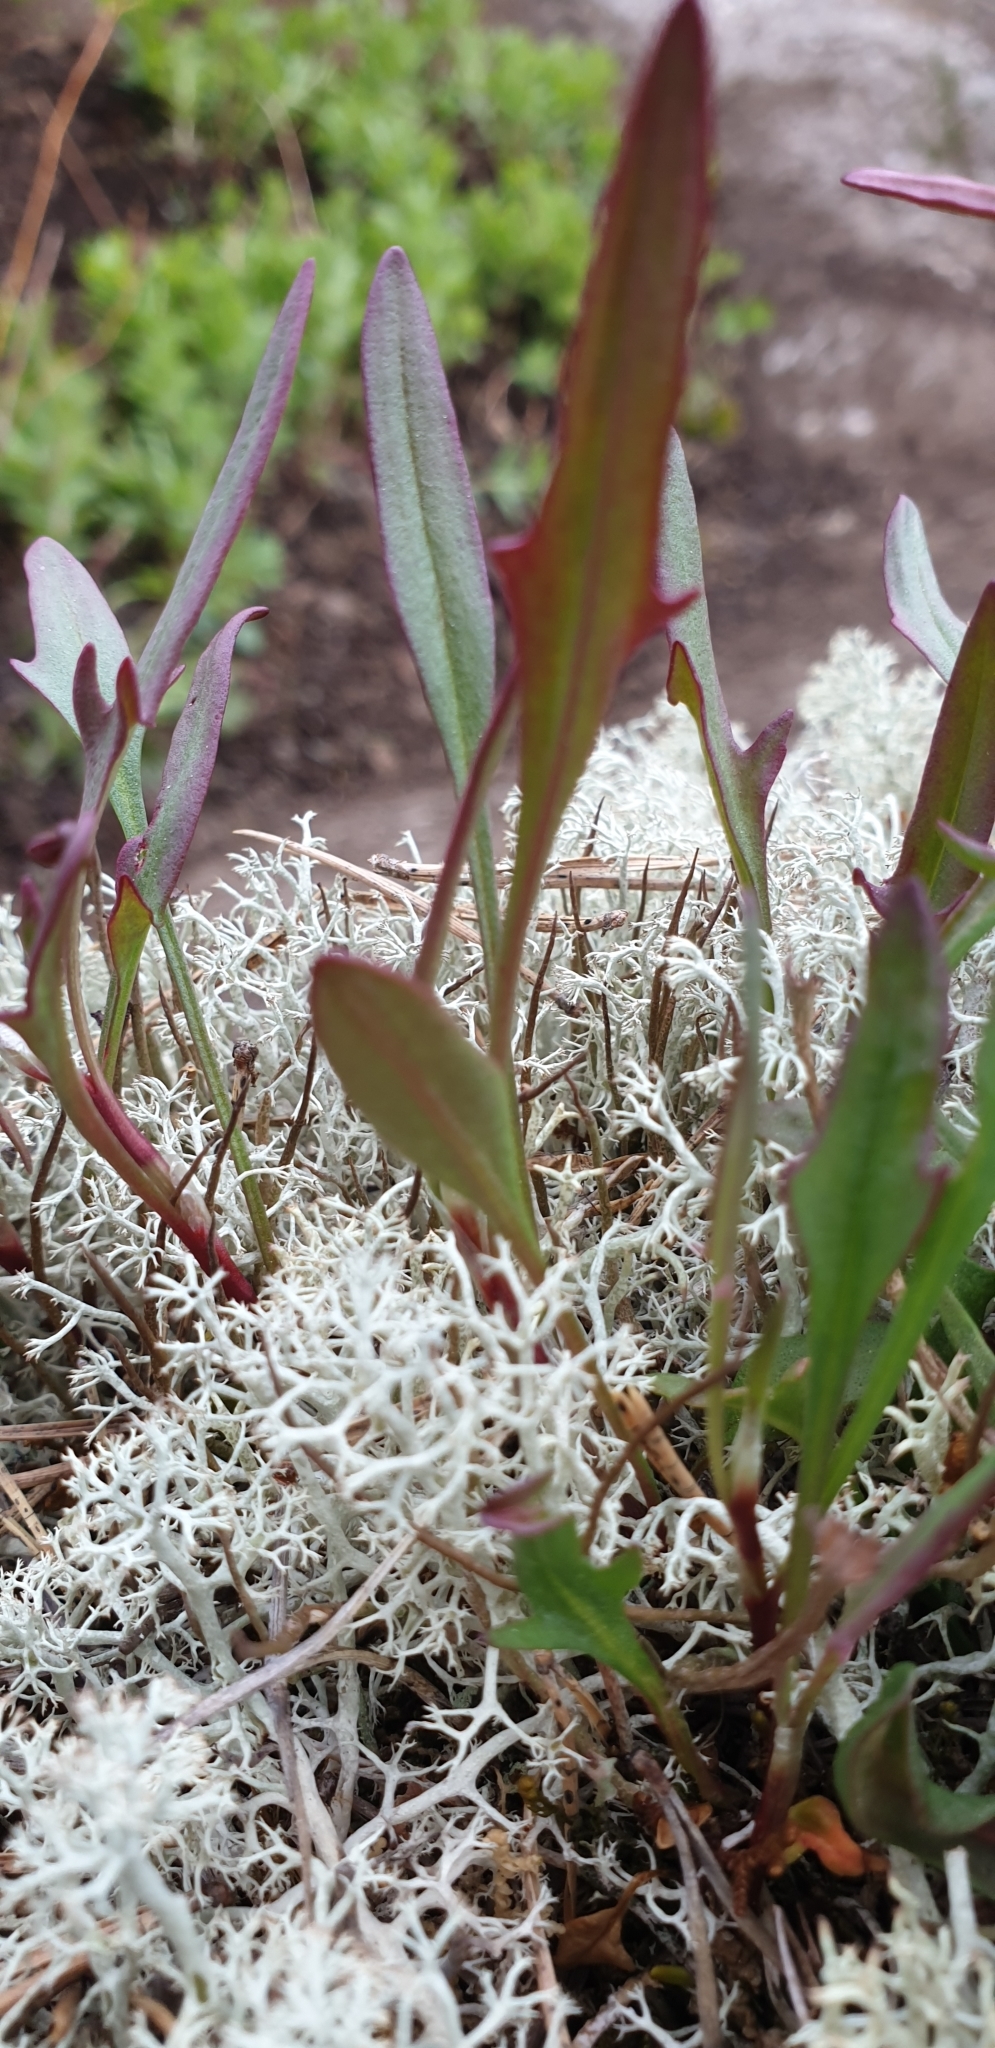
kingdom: Plantae
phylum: Tracheophyta
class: Magnoliopsida
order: Caryophyllales
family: Polygonaceae
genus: Rumex
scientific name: Rumex acetosella
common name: Common sheep sorrel
